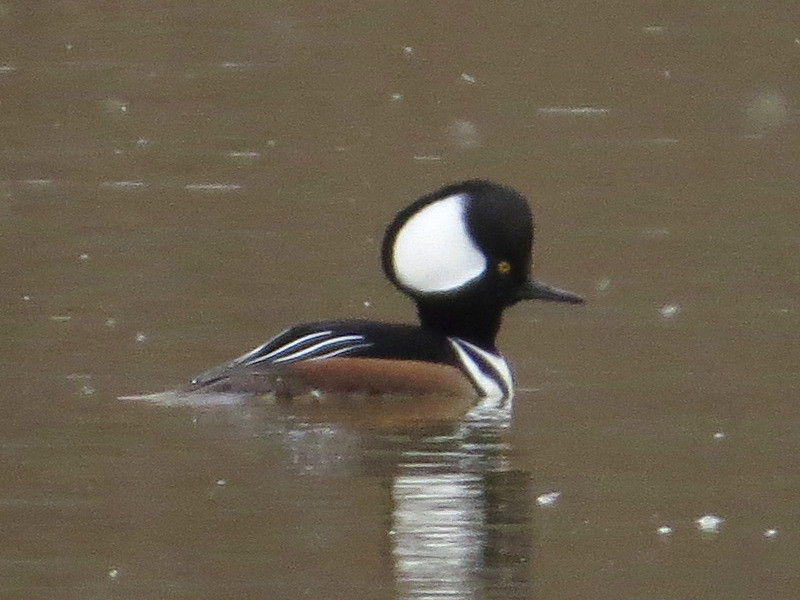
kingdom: Animalia
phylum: Chordata
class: Aves
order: Anseriformes
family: Anatidae
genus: Lophodytes
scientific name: Lophodytes cucullatus
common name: Hooded merganser
